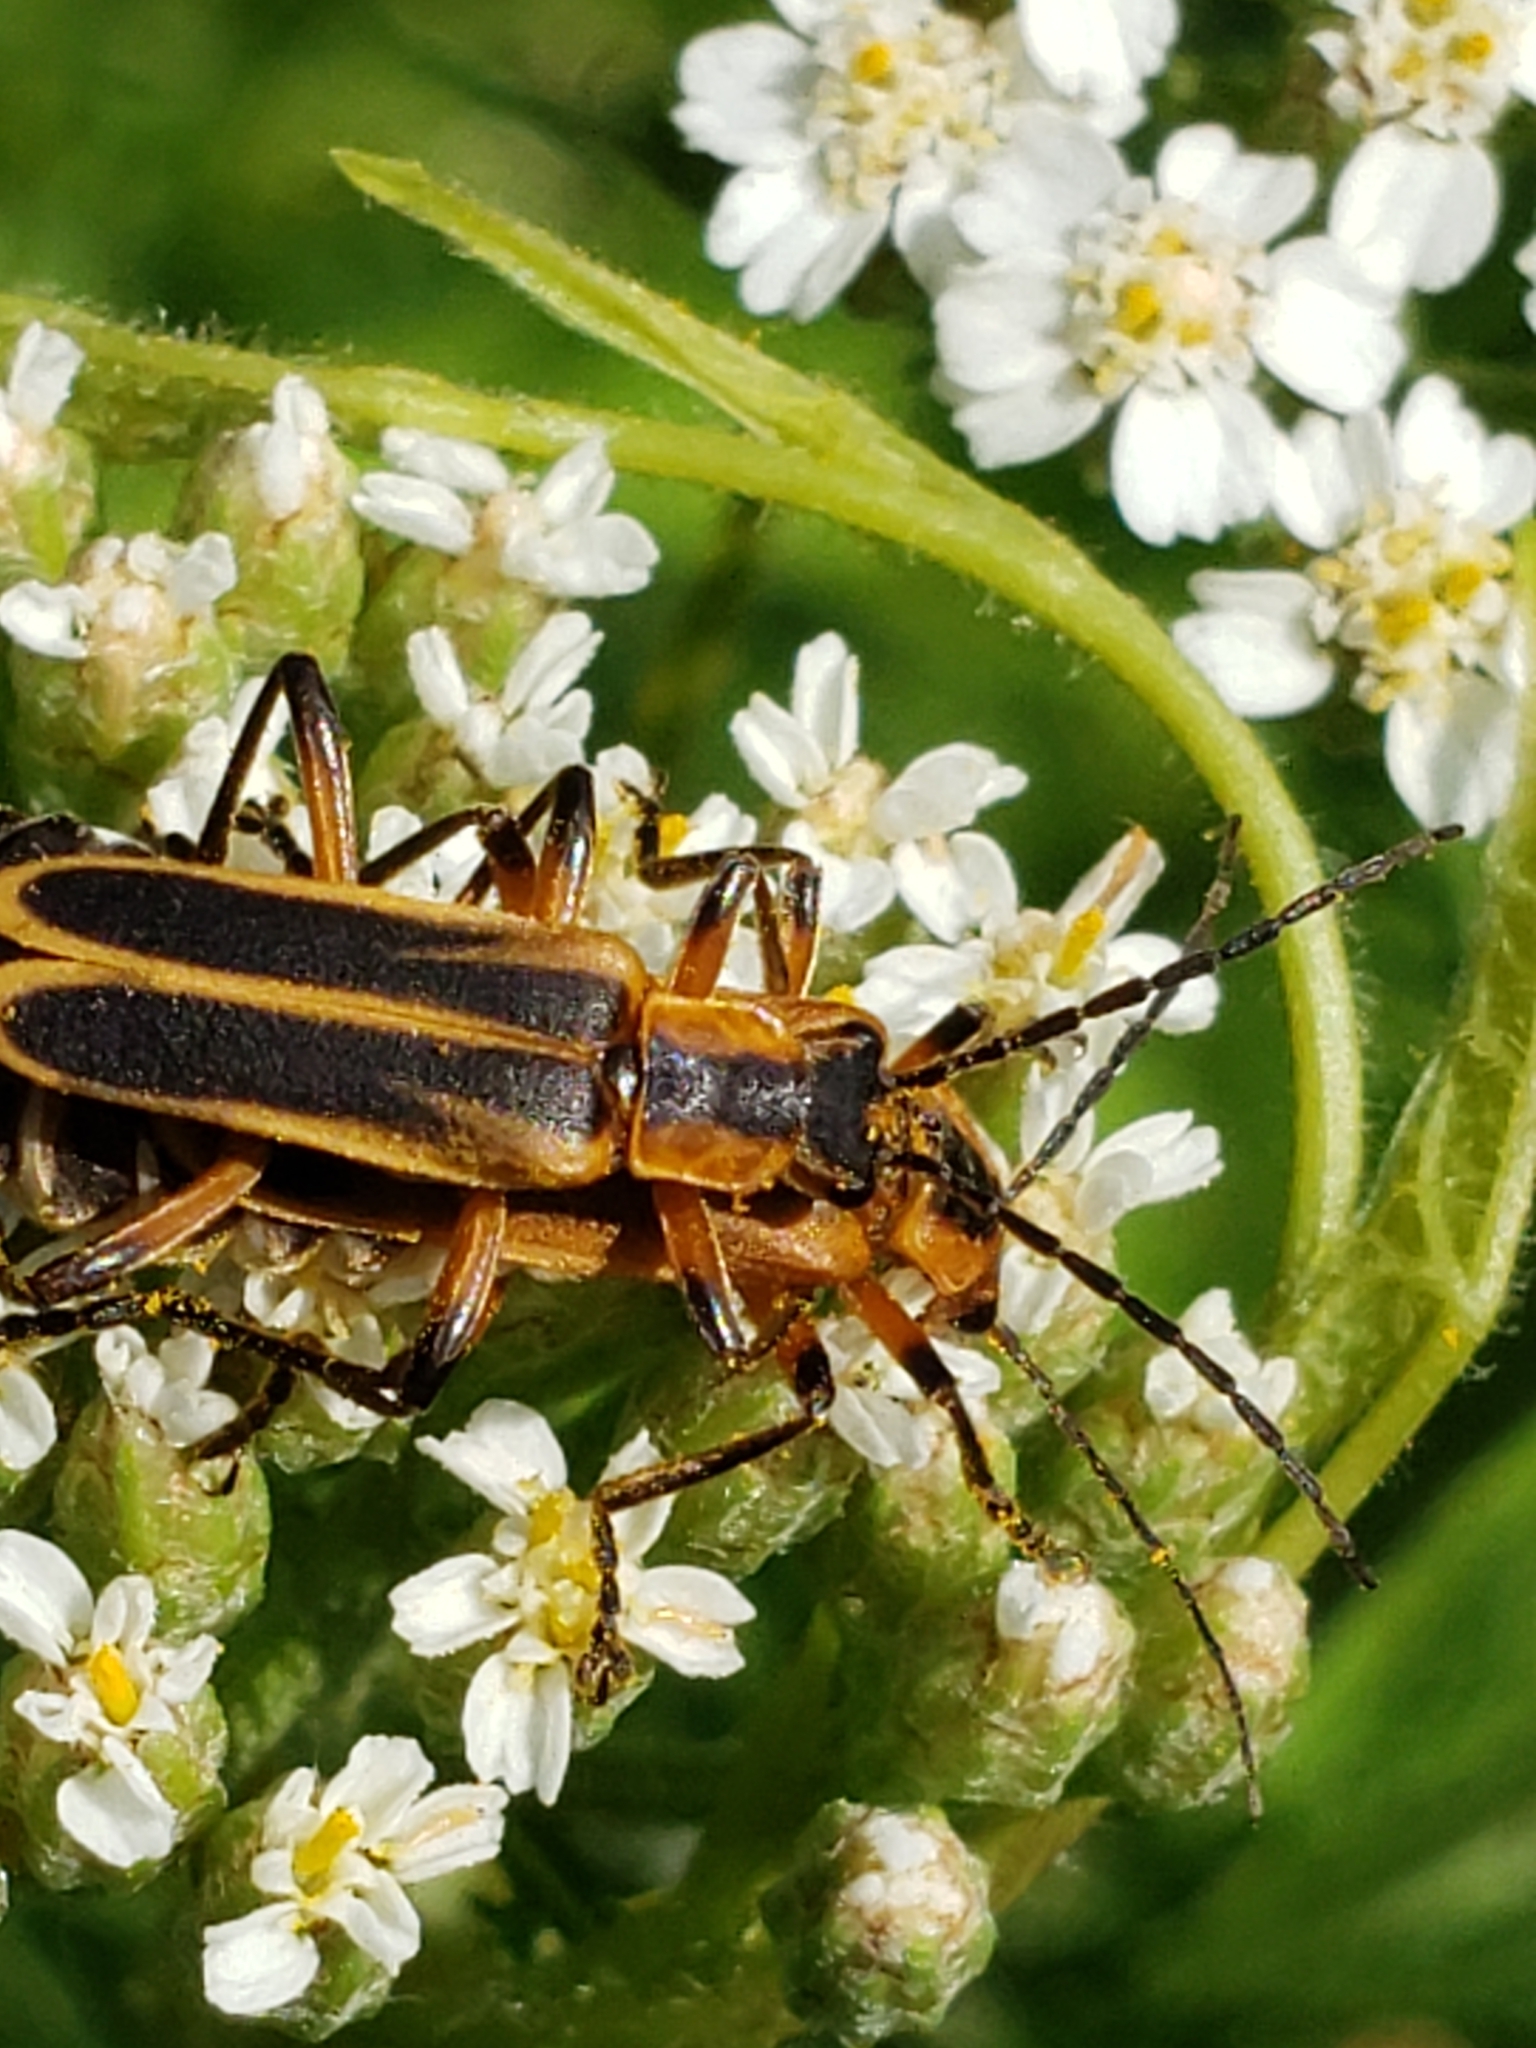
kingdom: Animalia
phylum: Arthropoda
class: Insecta
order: Coleoptera
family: Cantharidae
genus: Chauliognathus
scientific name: Chauliognathus marginatus
